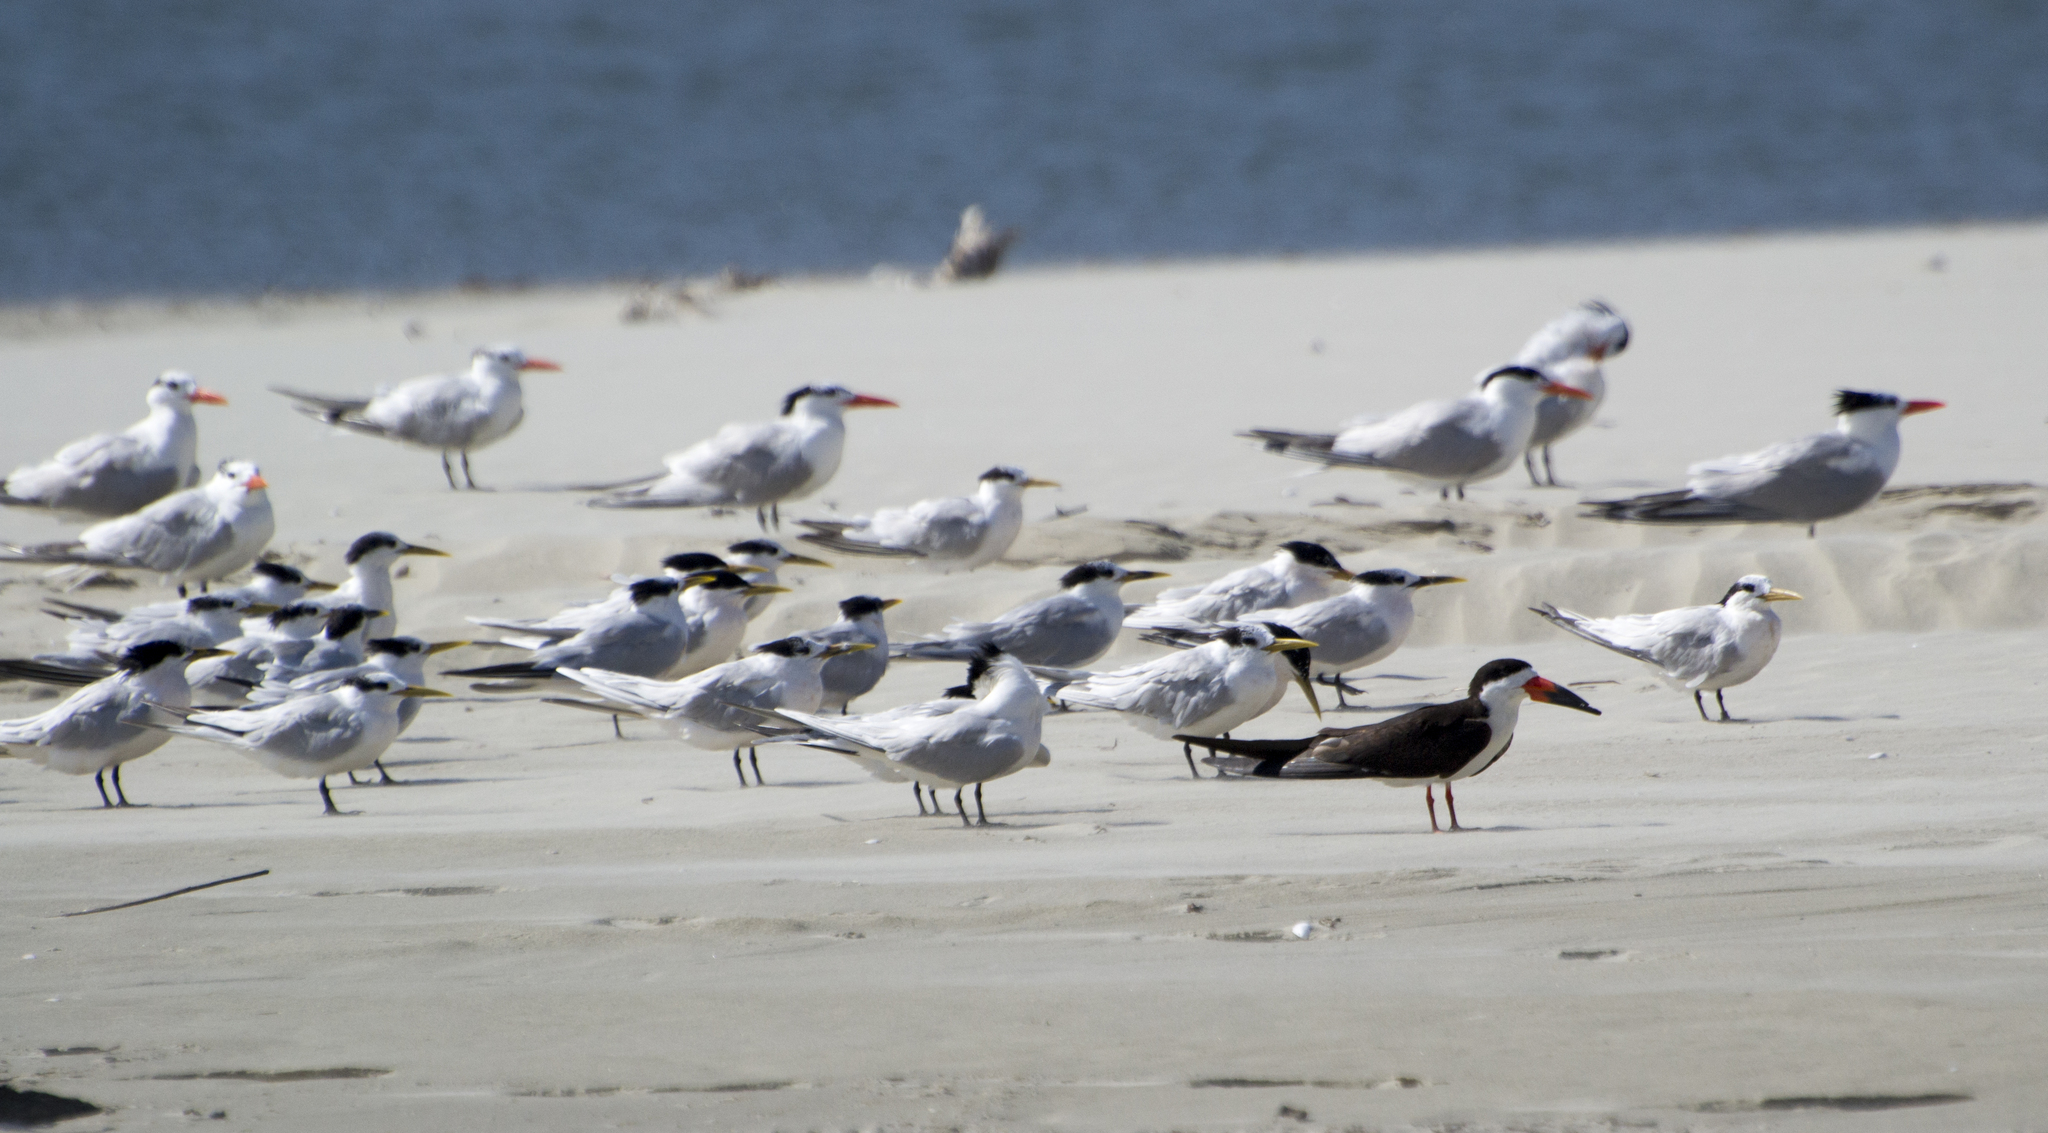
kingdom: Animalia
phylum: Chordata
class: Aves
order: Charadriiformes
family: Laridae
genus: Rynchops
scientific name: Rynchops niger
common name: Black skimmer
